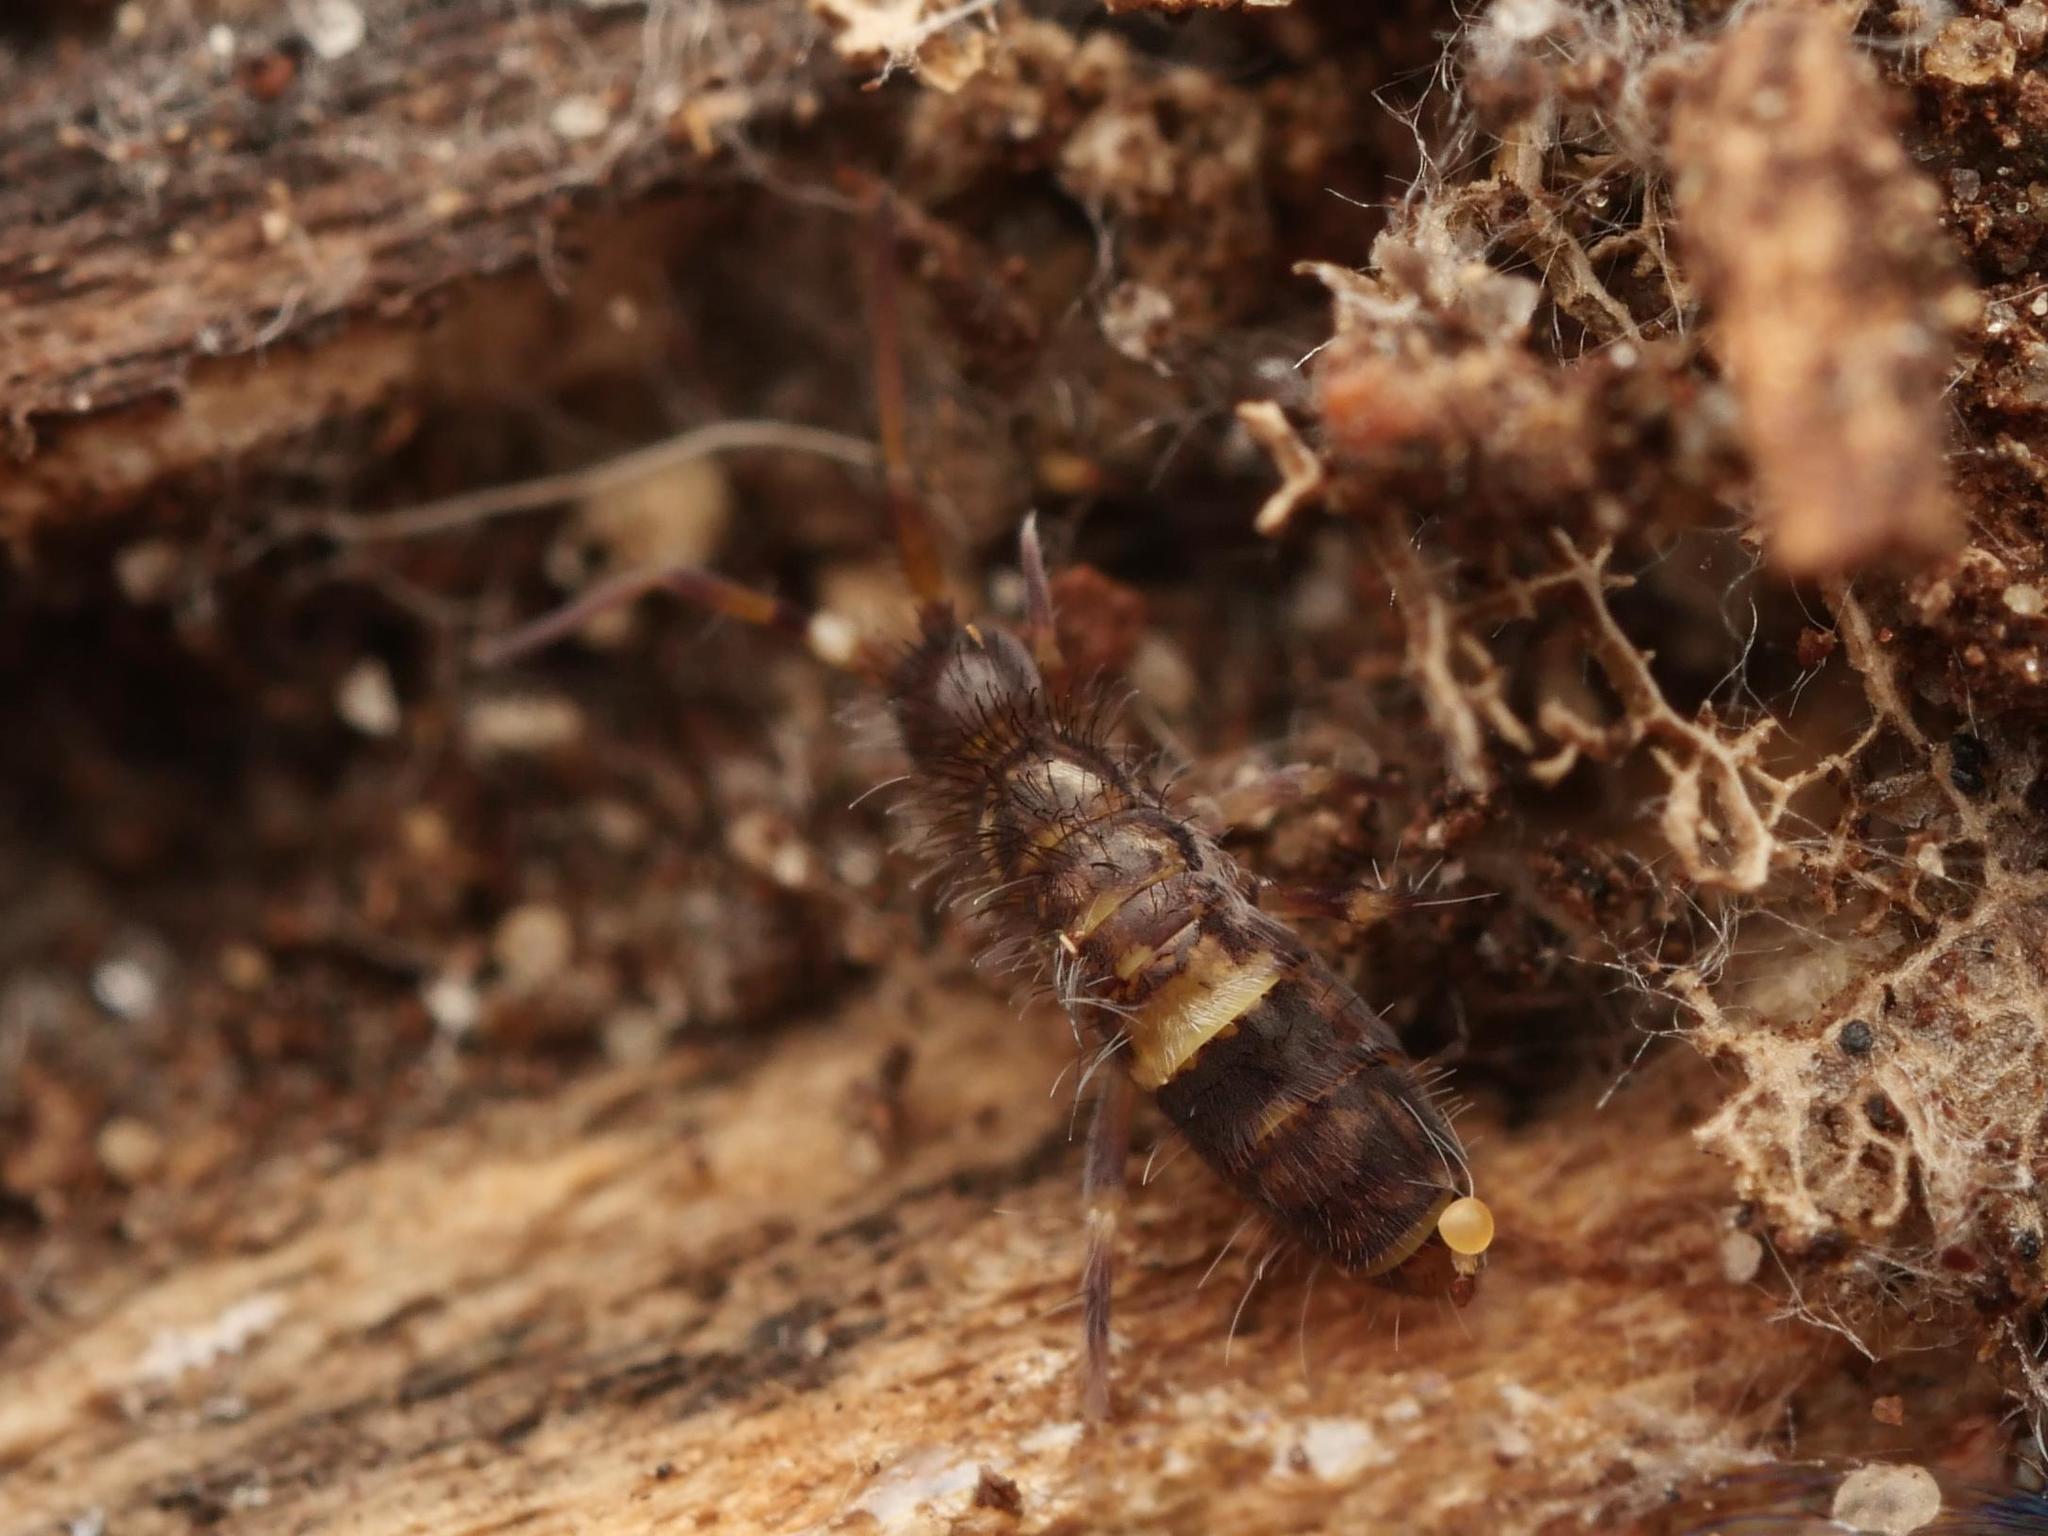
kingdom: Animalia
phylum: Arthropoda
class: Collembola
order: Entomobryomorpha
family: Orchesellidae
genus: Orchesella
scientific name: Orchesella cincta
